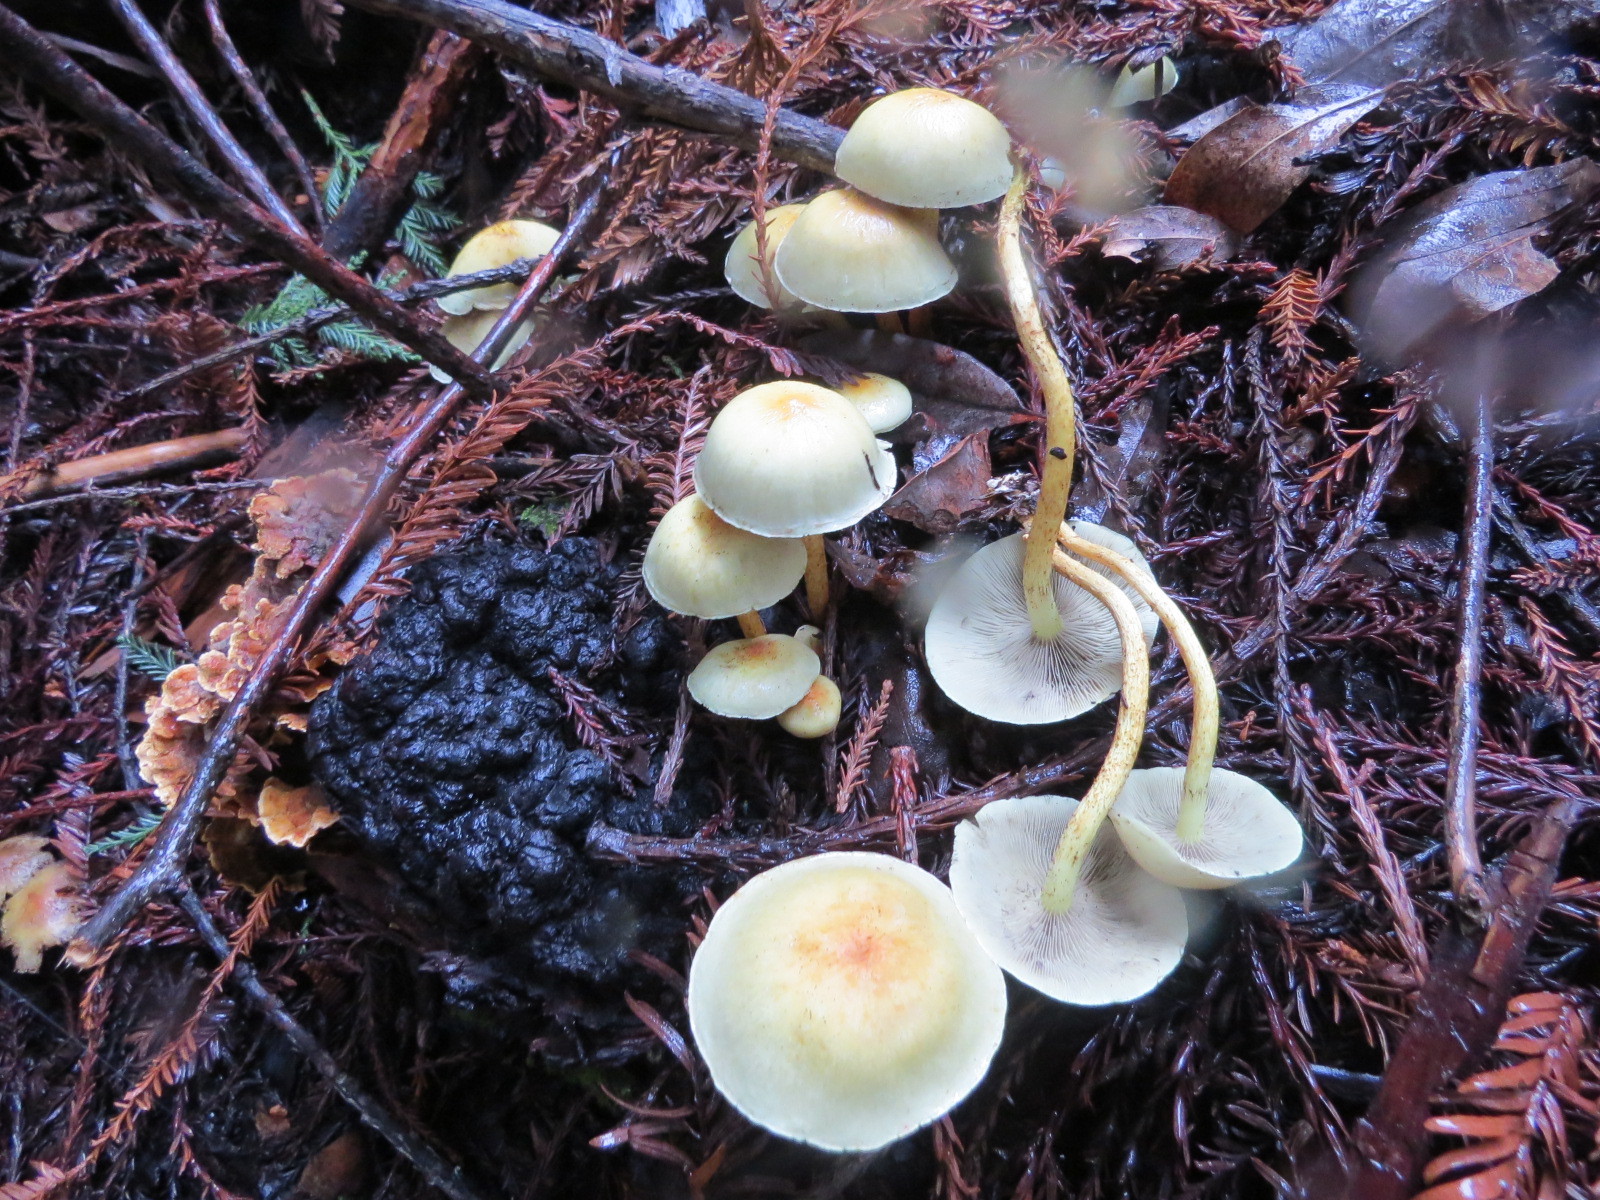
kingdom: Fungi
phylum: Basidiomycota
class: Agaricomycetes
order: Agaricales
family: Strophariaceae
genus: Hypholoma
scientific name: Hypholoma capnoides
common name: Conifer tuft
